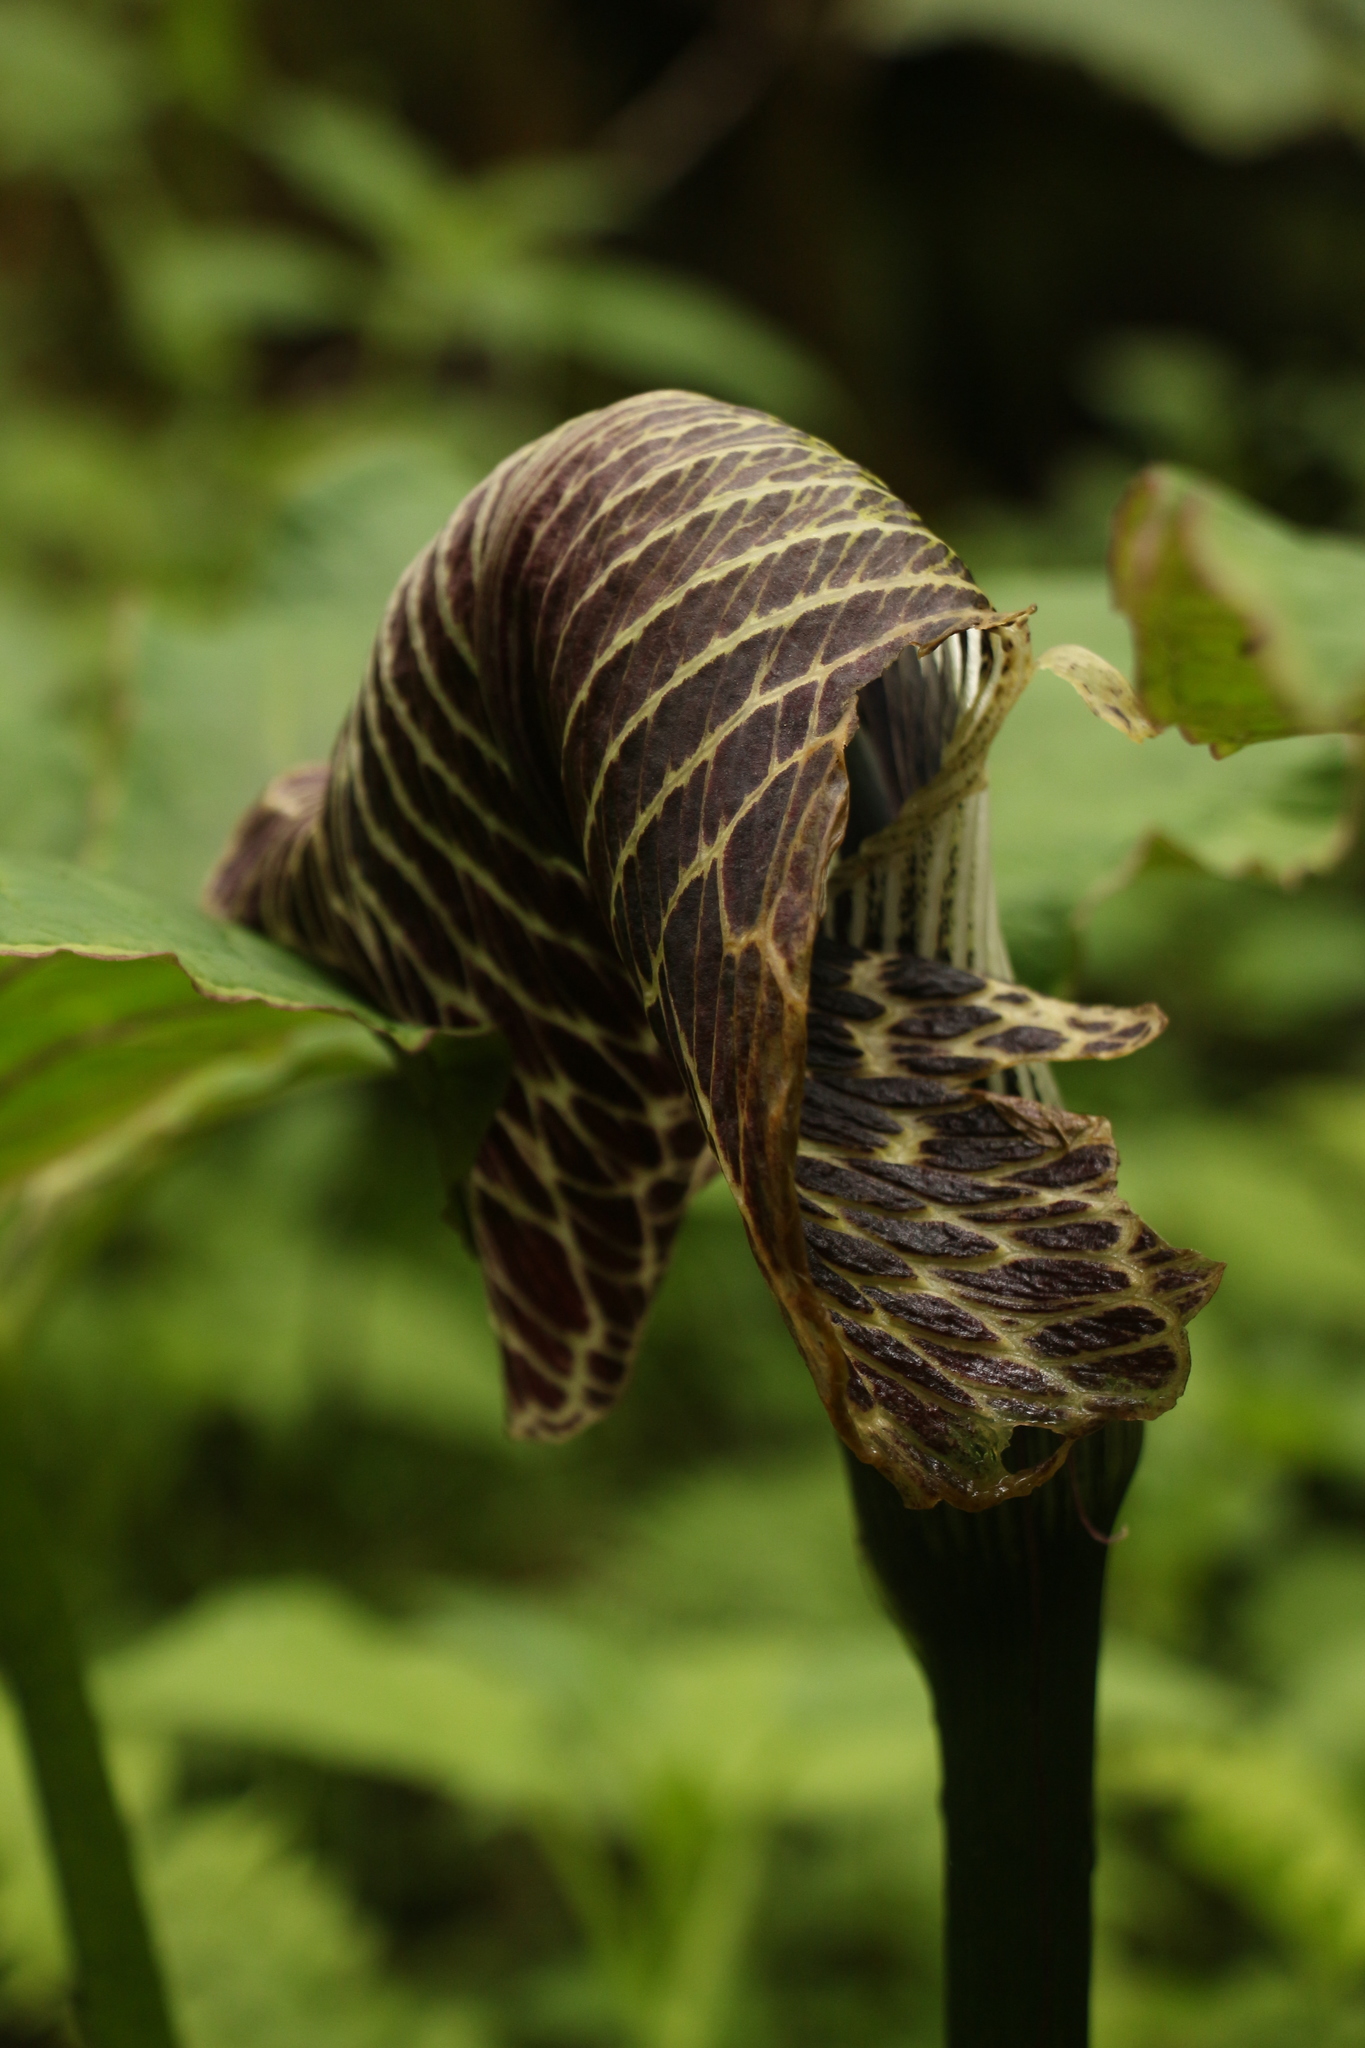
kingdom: Plantae
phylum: Tracheophyta
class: Liliopsida
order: Alismatales
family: Araceae
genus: Arisaema
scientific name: Arisaema griffithii
